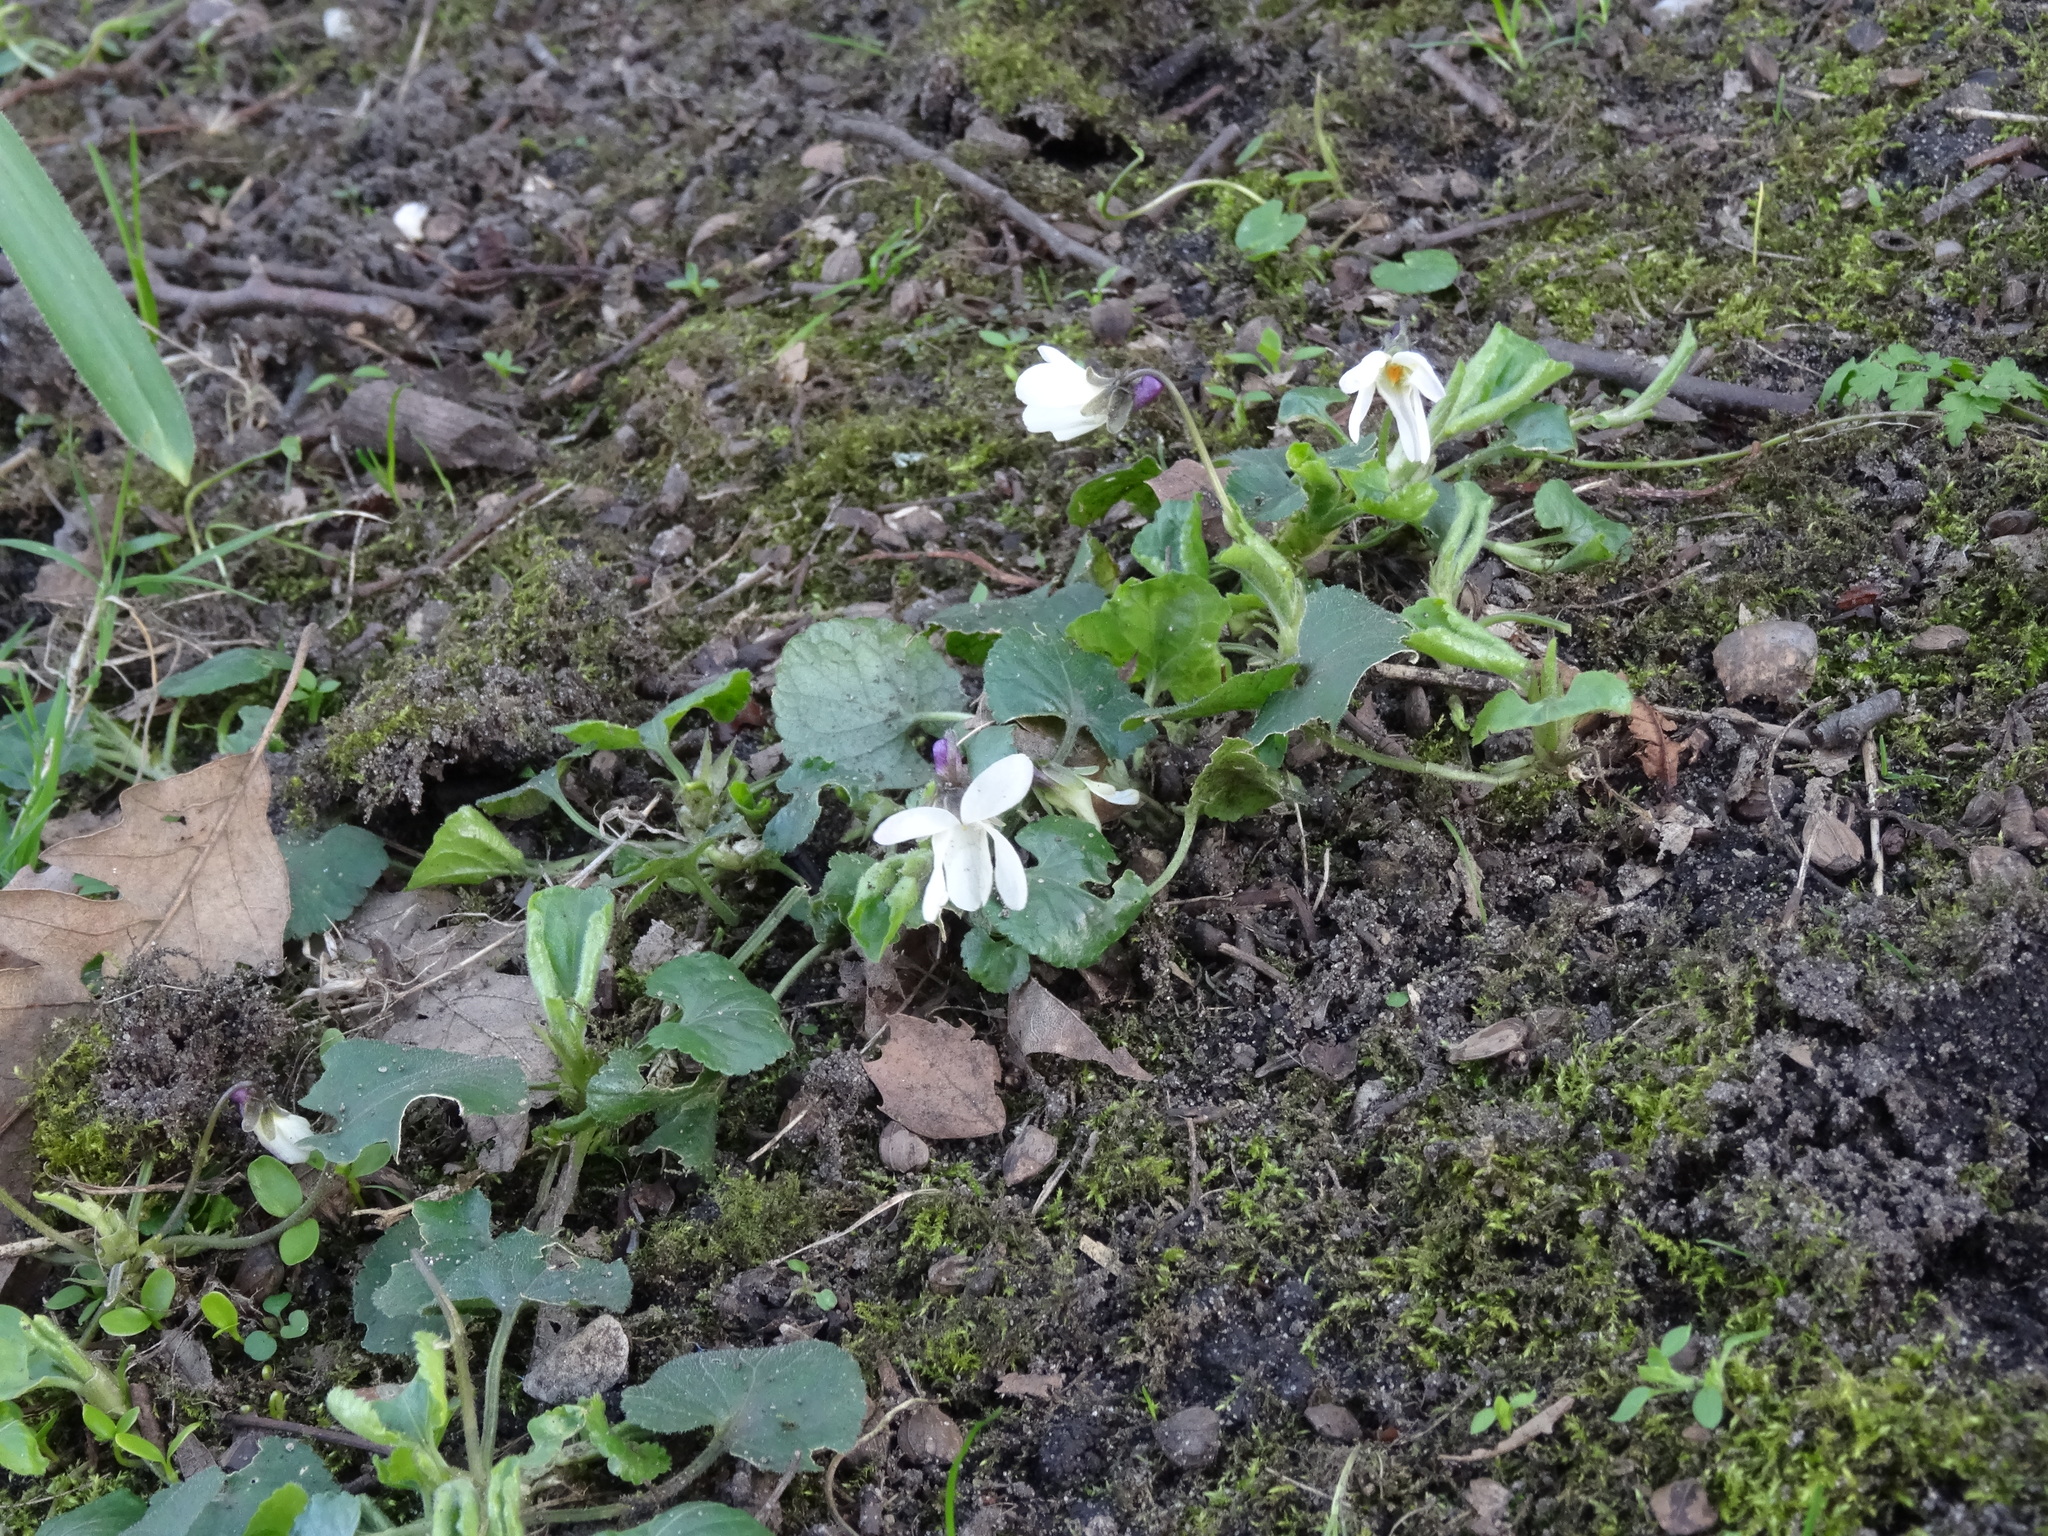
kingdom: Plantae
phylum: Tracheophyta
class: Magnoliopsida
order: Malpighiales
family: Violaceae
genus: Viola
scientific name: Viola odorata
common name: Sweet violet
